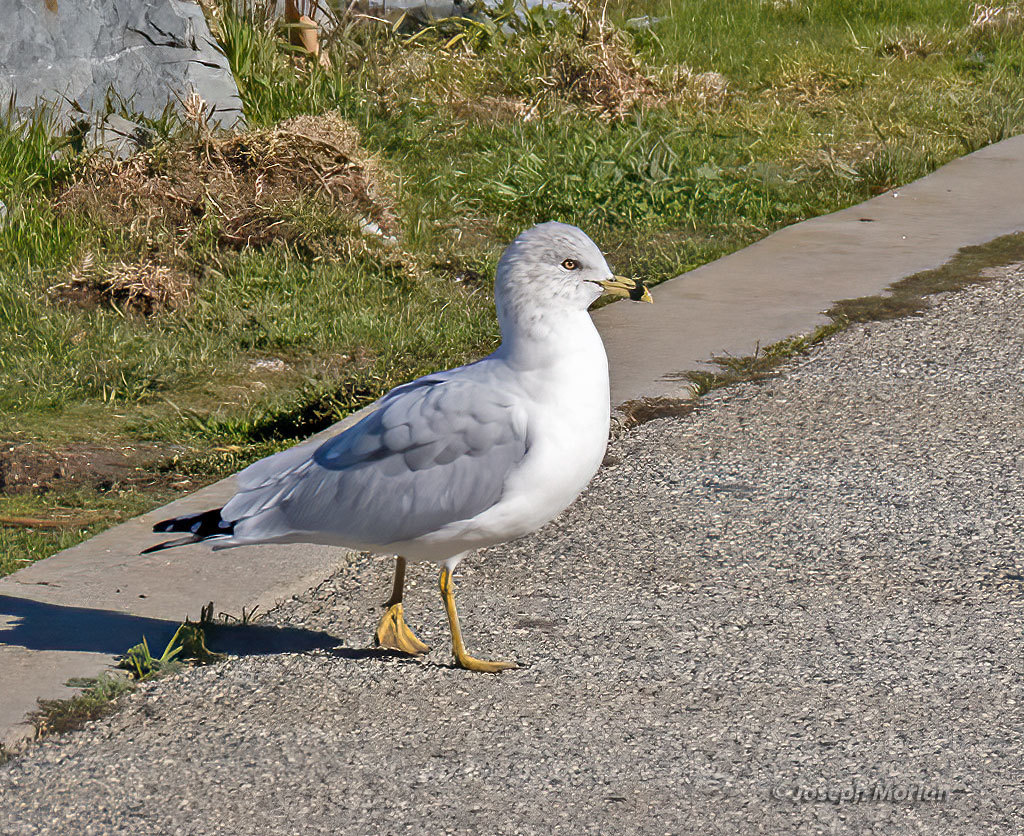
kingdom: Animalia
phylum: Chordata
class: Aves
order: Charadriiformes
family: Laridae
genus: Larus
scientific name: Larus delawarensis
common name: Ring-billed gull
